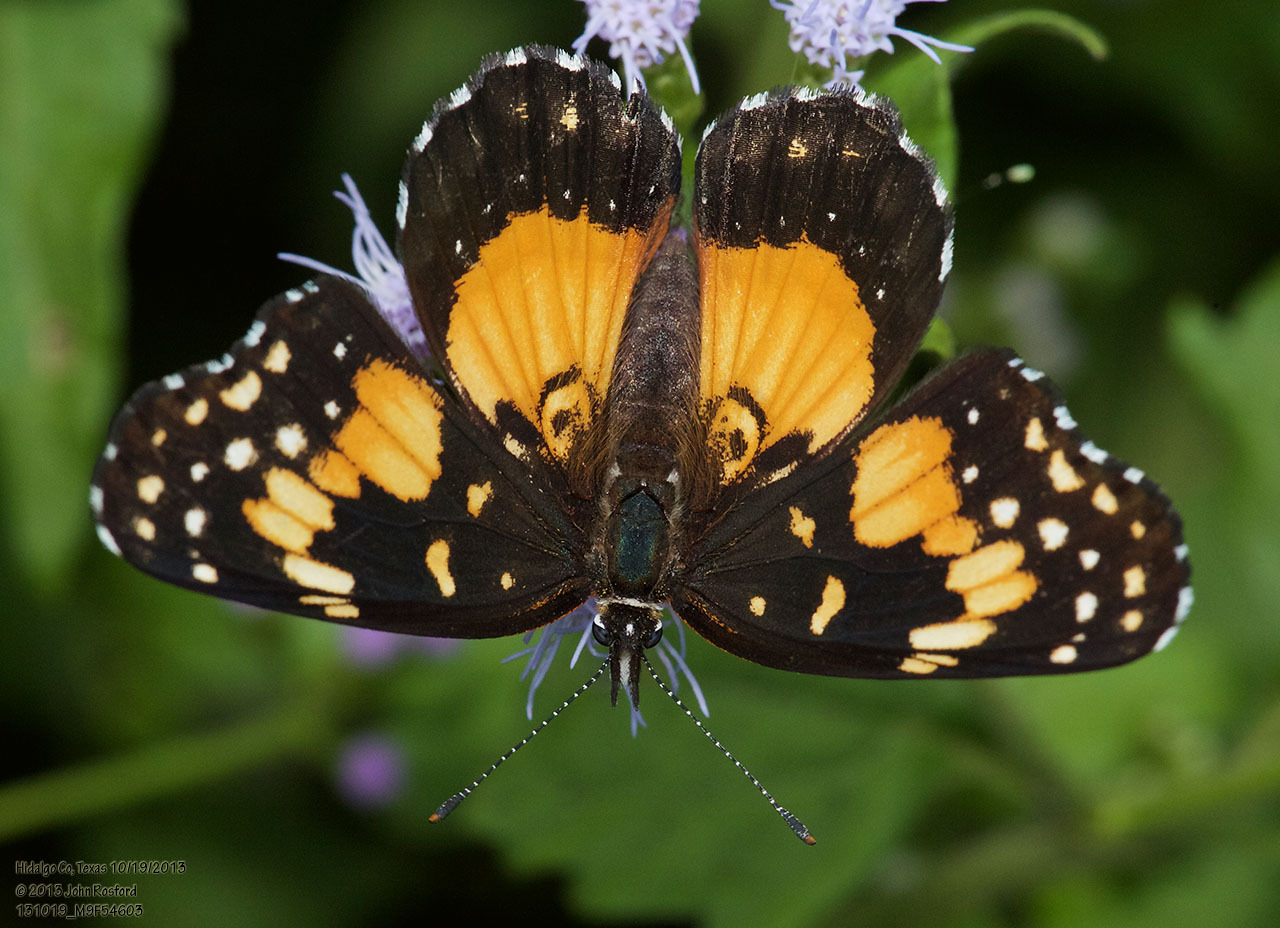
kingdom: Animalia
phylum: Arthropoda
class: Insecta
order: Lepidoptera
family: Nymphalidae
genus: Chlosyne
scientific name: Chlosyne lacinia
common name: Bordered patch
